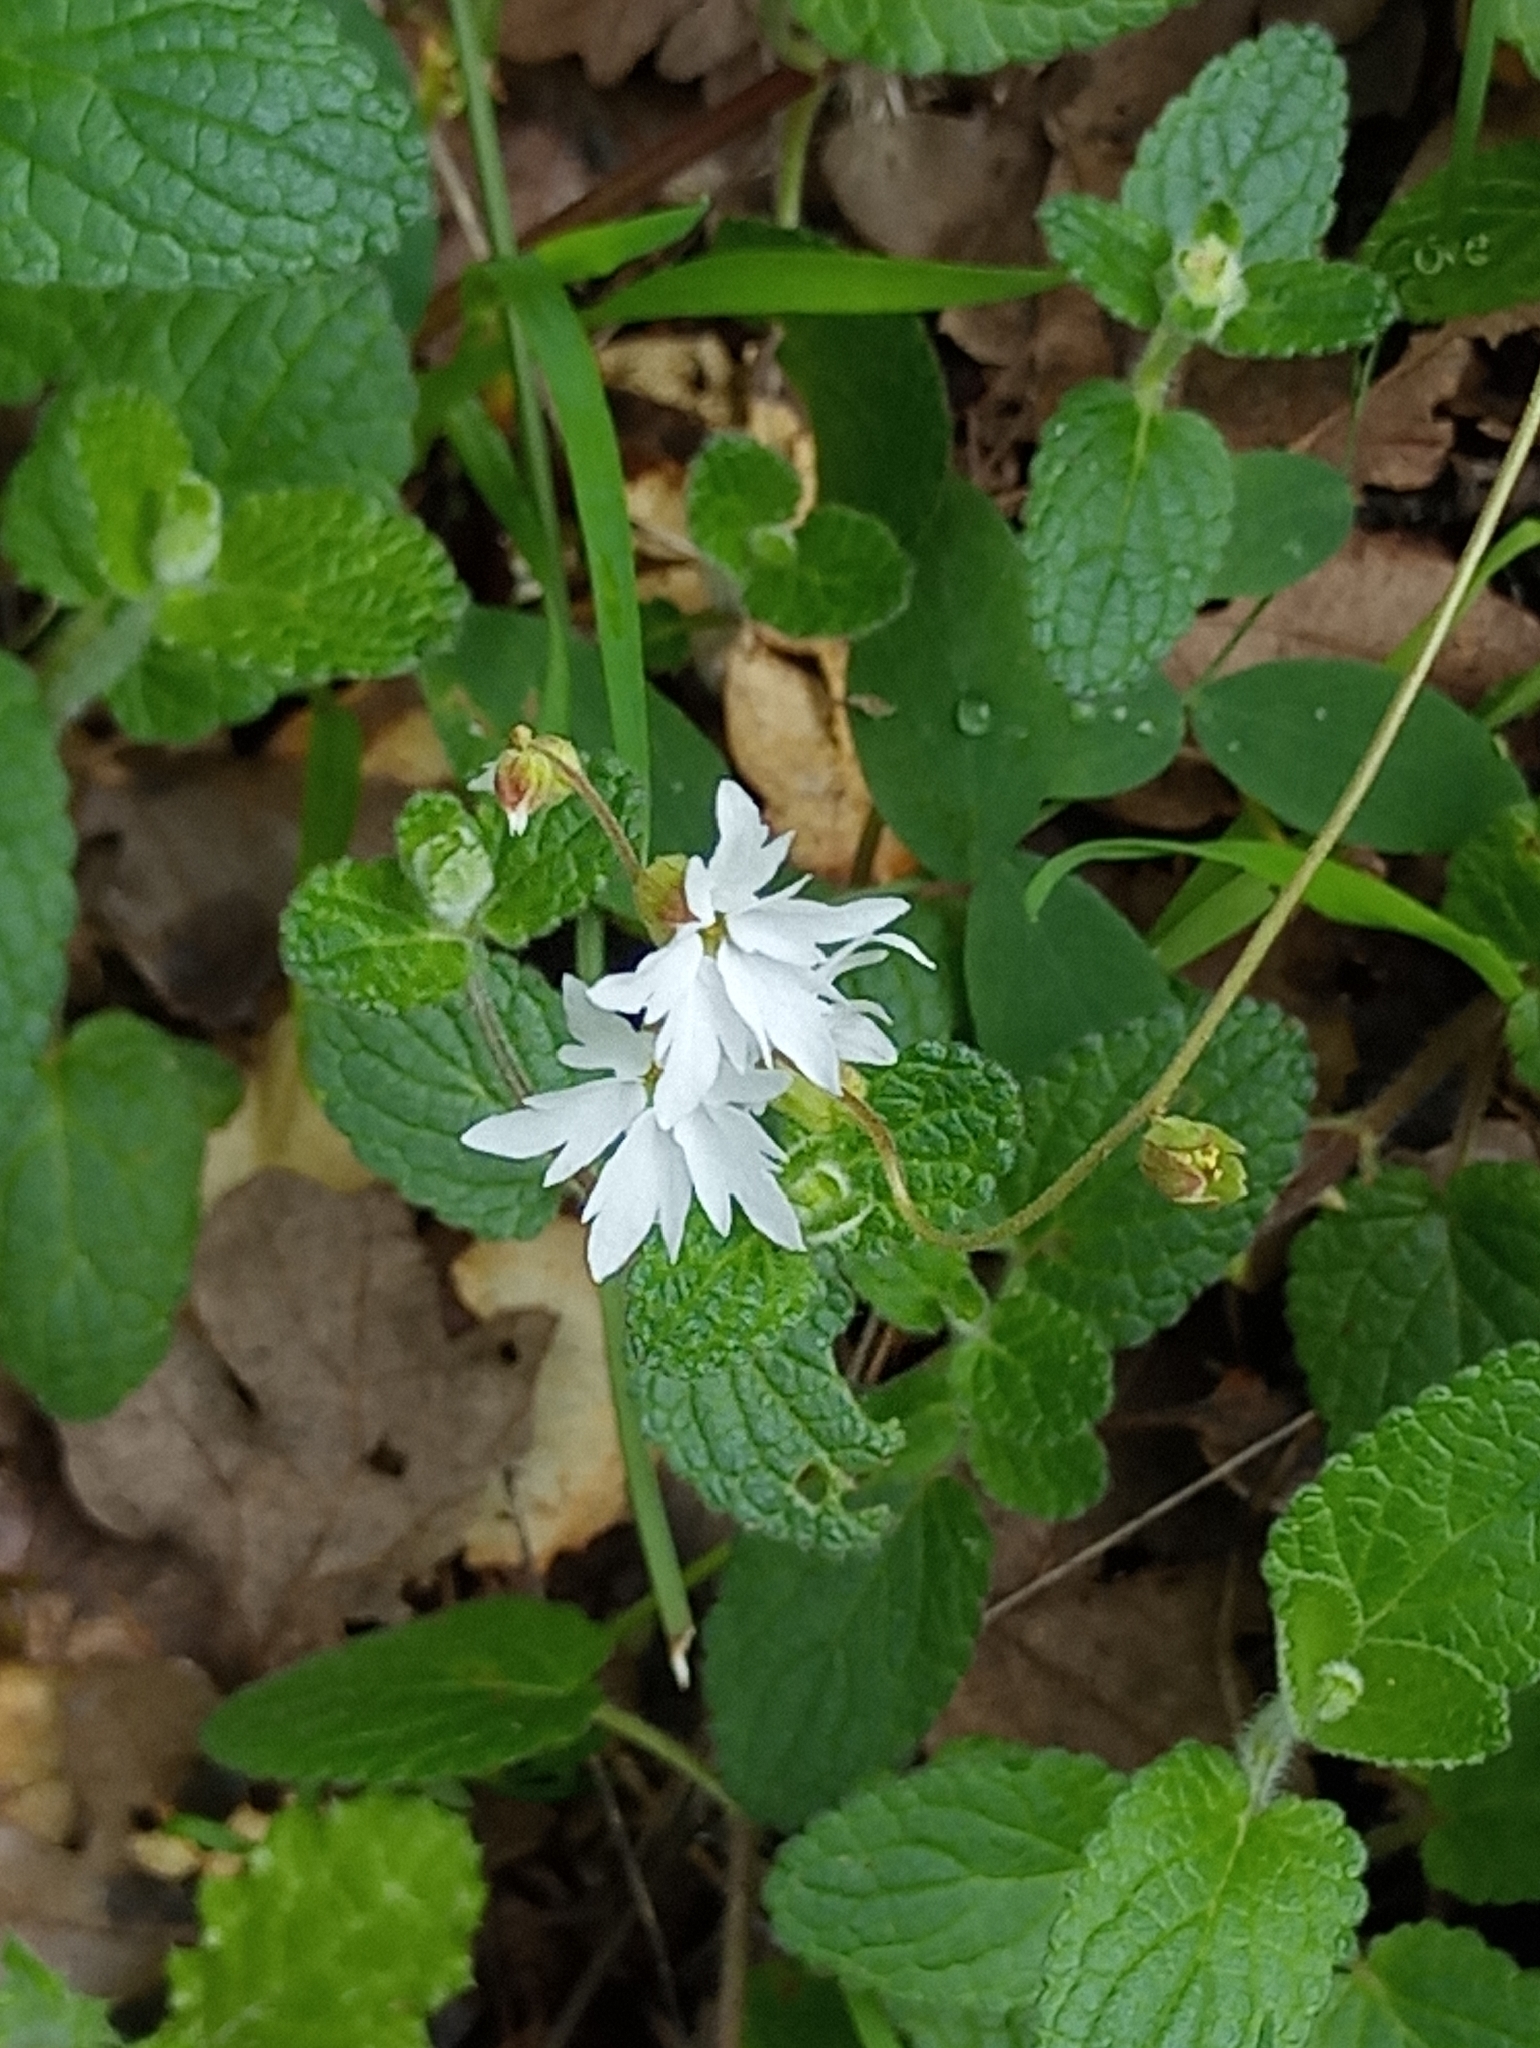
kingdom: Plantae
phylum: Tracheophyta
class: Magnoliopsida
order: Saxifragales
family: Saxifragaceae
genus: Lithophragma
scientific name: Lithophragma heterophyllum
